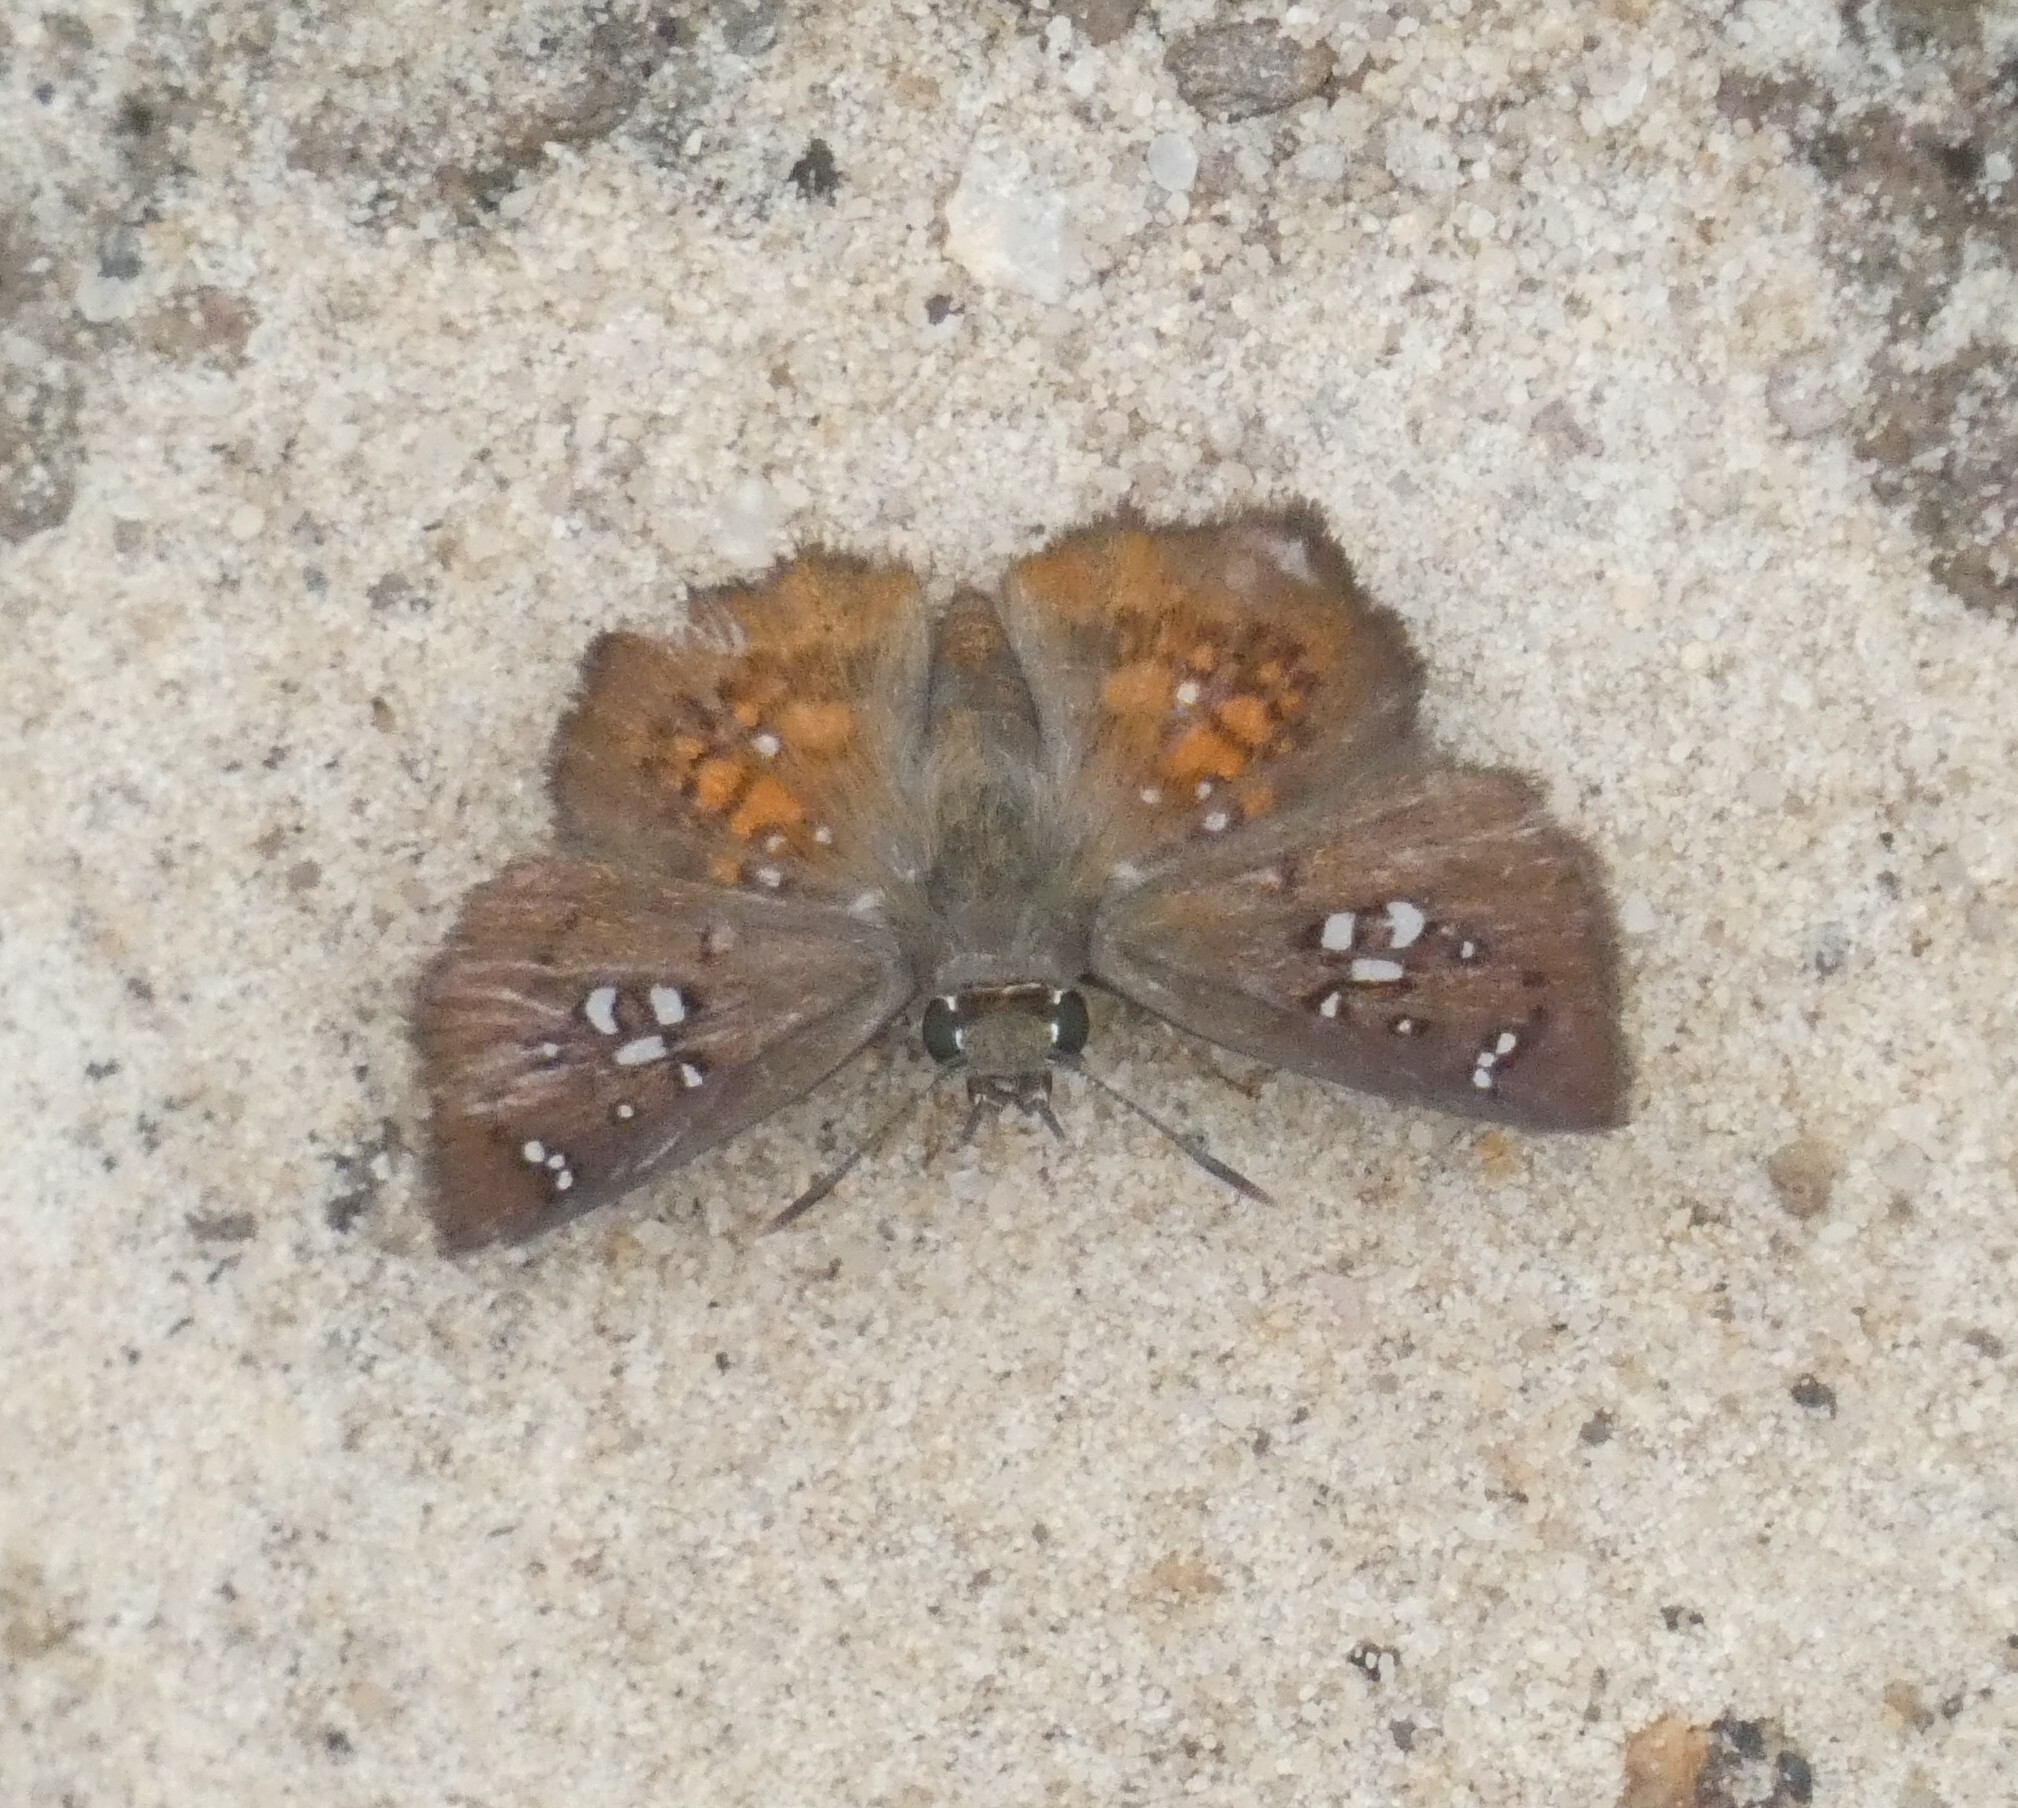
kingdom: Animalia
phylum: Arthropoda
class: Insecta
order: Lepidoptera
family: Hesperiidae
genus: Udranomia
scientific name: Udranomia spitzi
